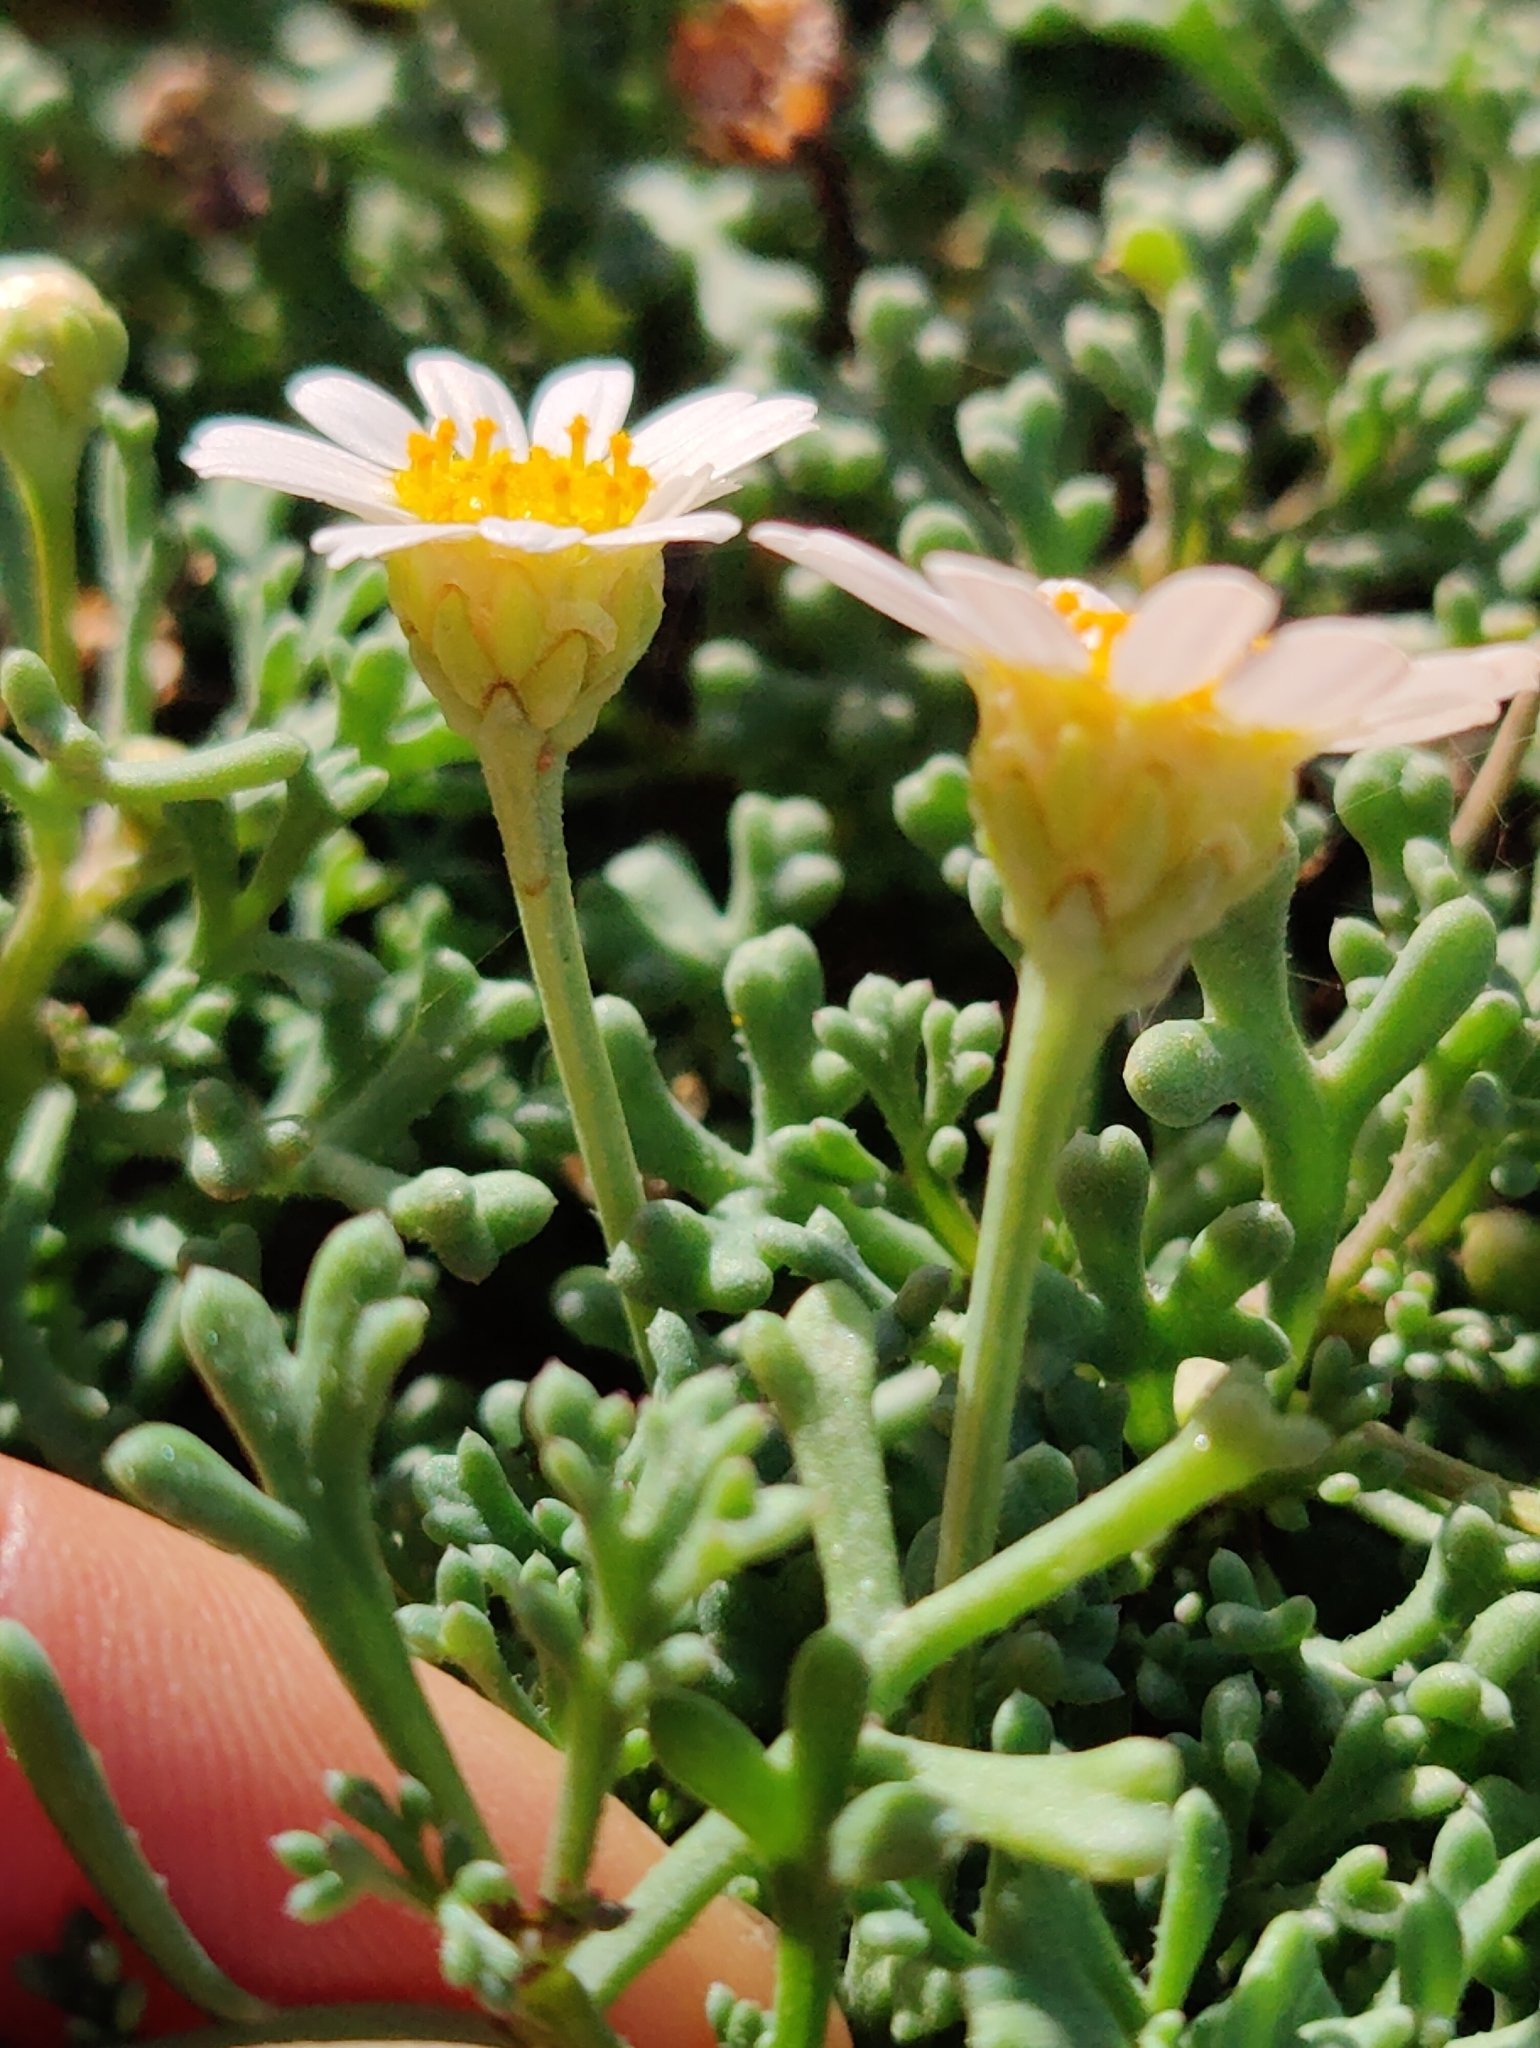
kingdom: Plantae
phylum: Tracheophyta
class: Magnoliopsida
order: Asterales
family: Asteraceae
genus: Argyranthemum
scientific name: Argyranthemum frutescens
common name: Paris daisy
